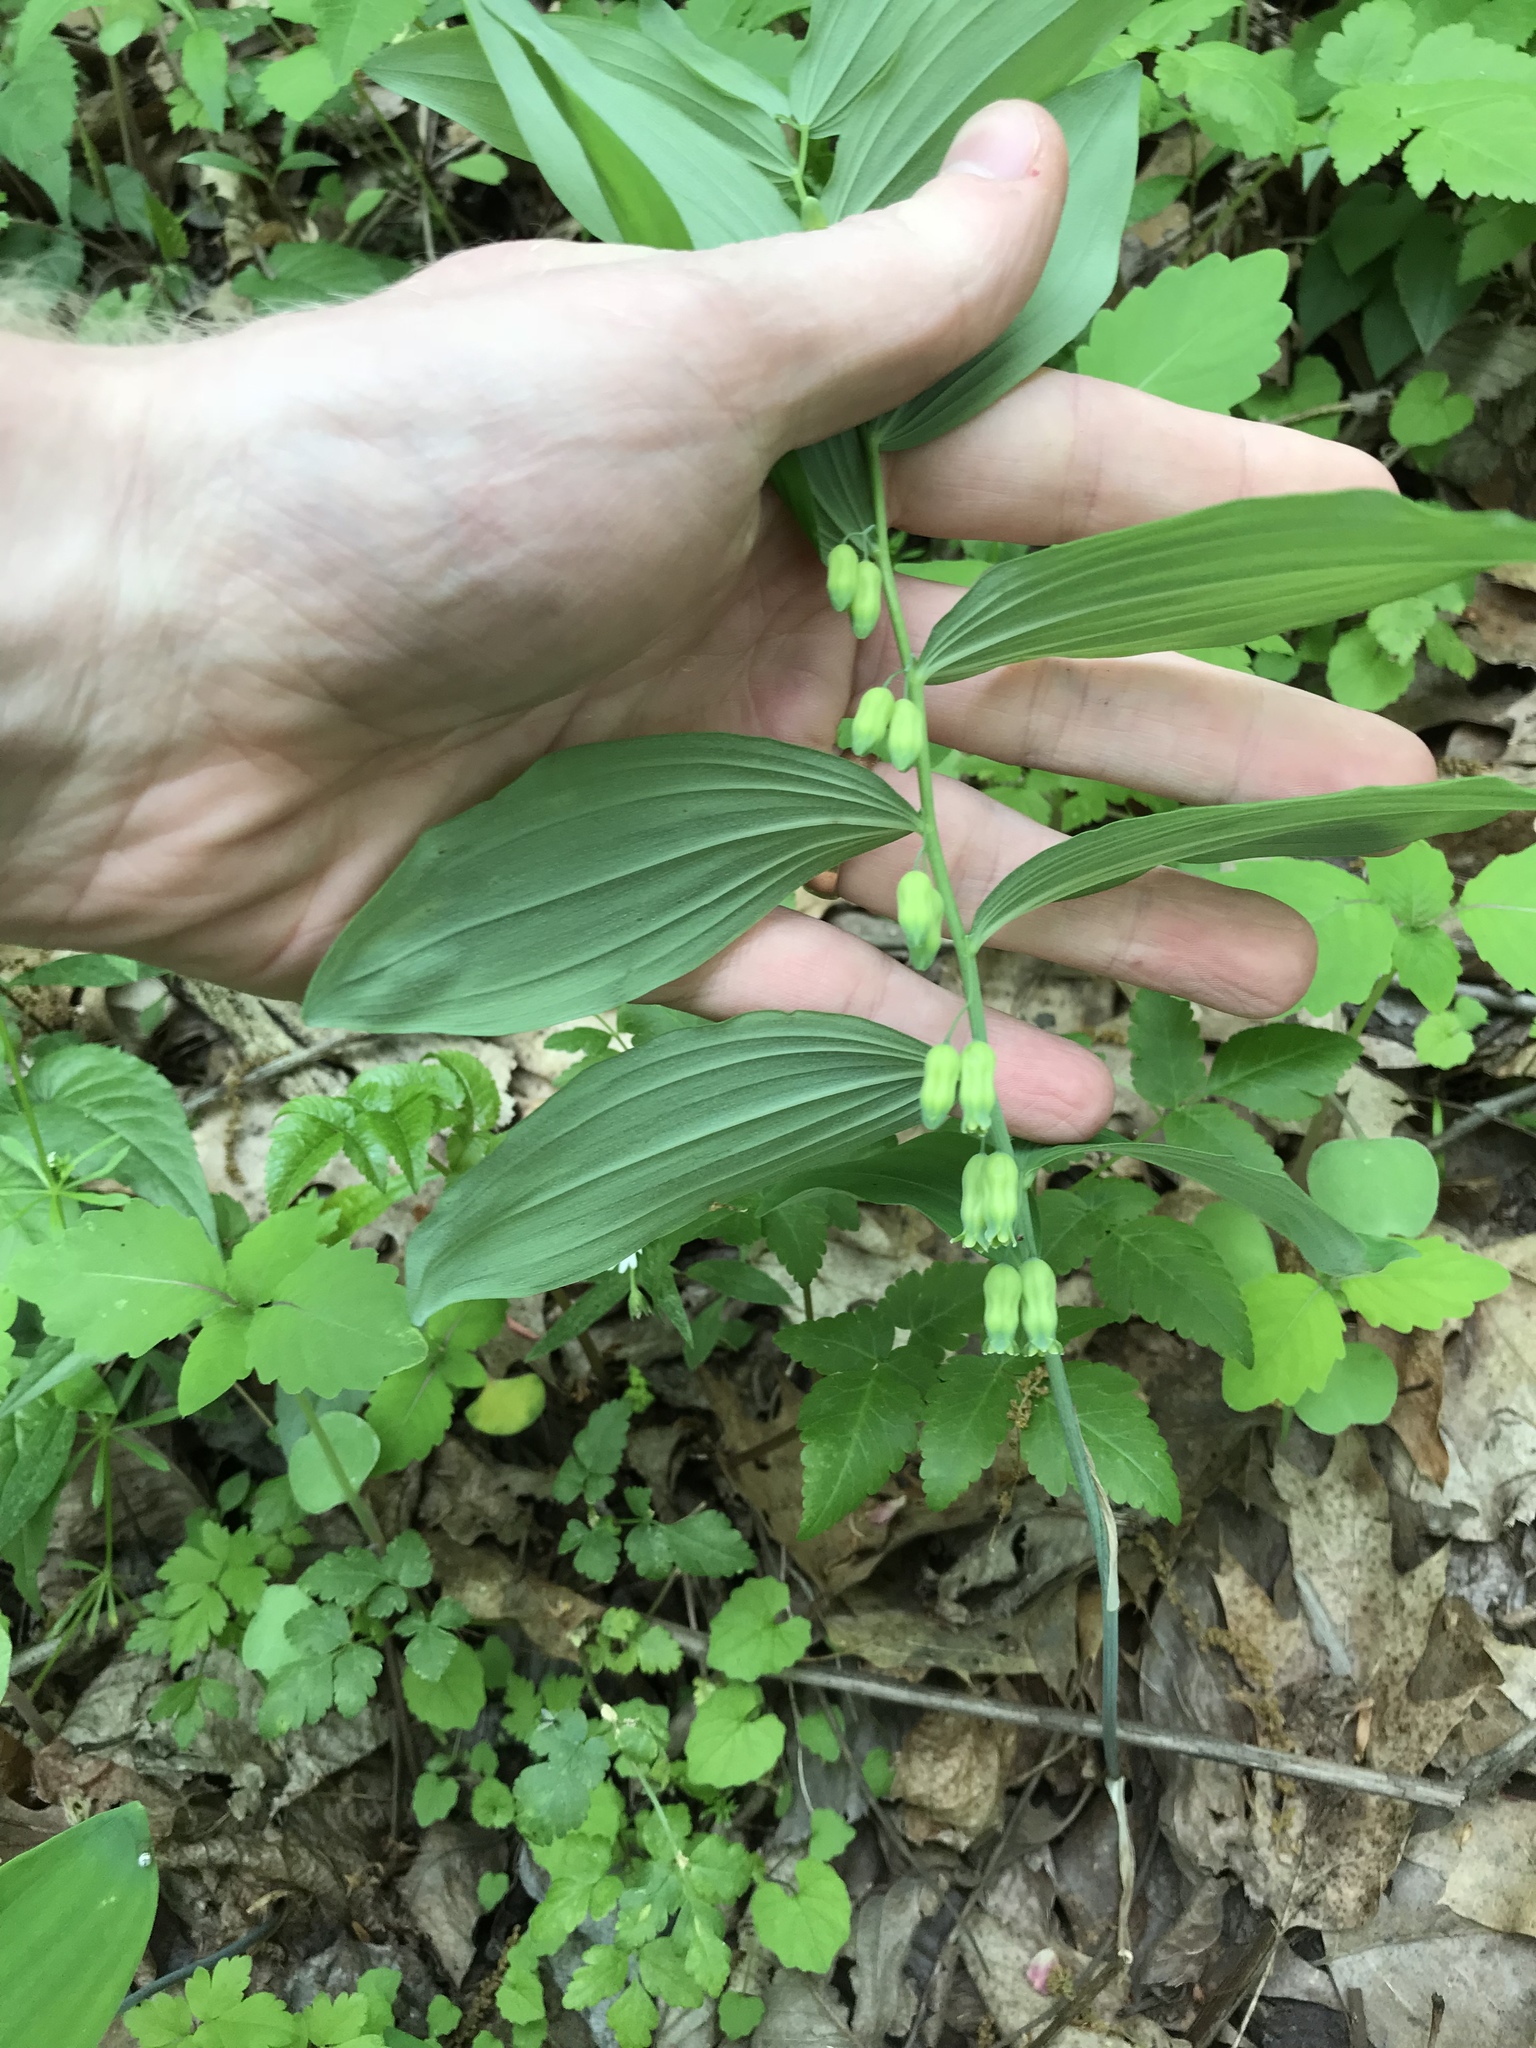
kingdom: Plantae
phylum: Tracheophyta
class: Liliopsida
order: Asparagales
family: Asparagaceae
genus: Polygonatum
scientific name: Polygonatum pubescens
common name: Downy solomon's seal
